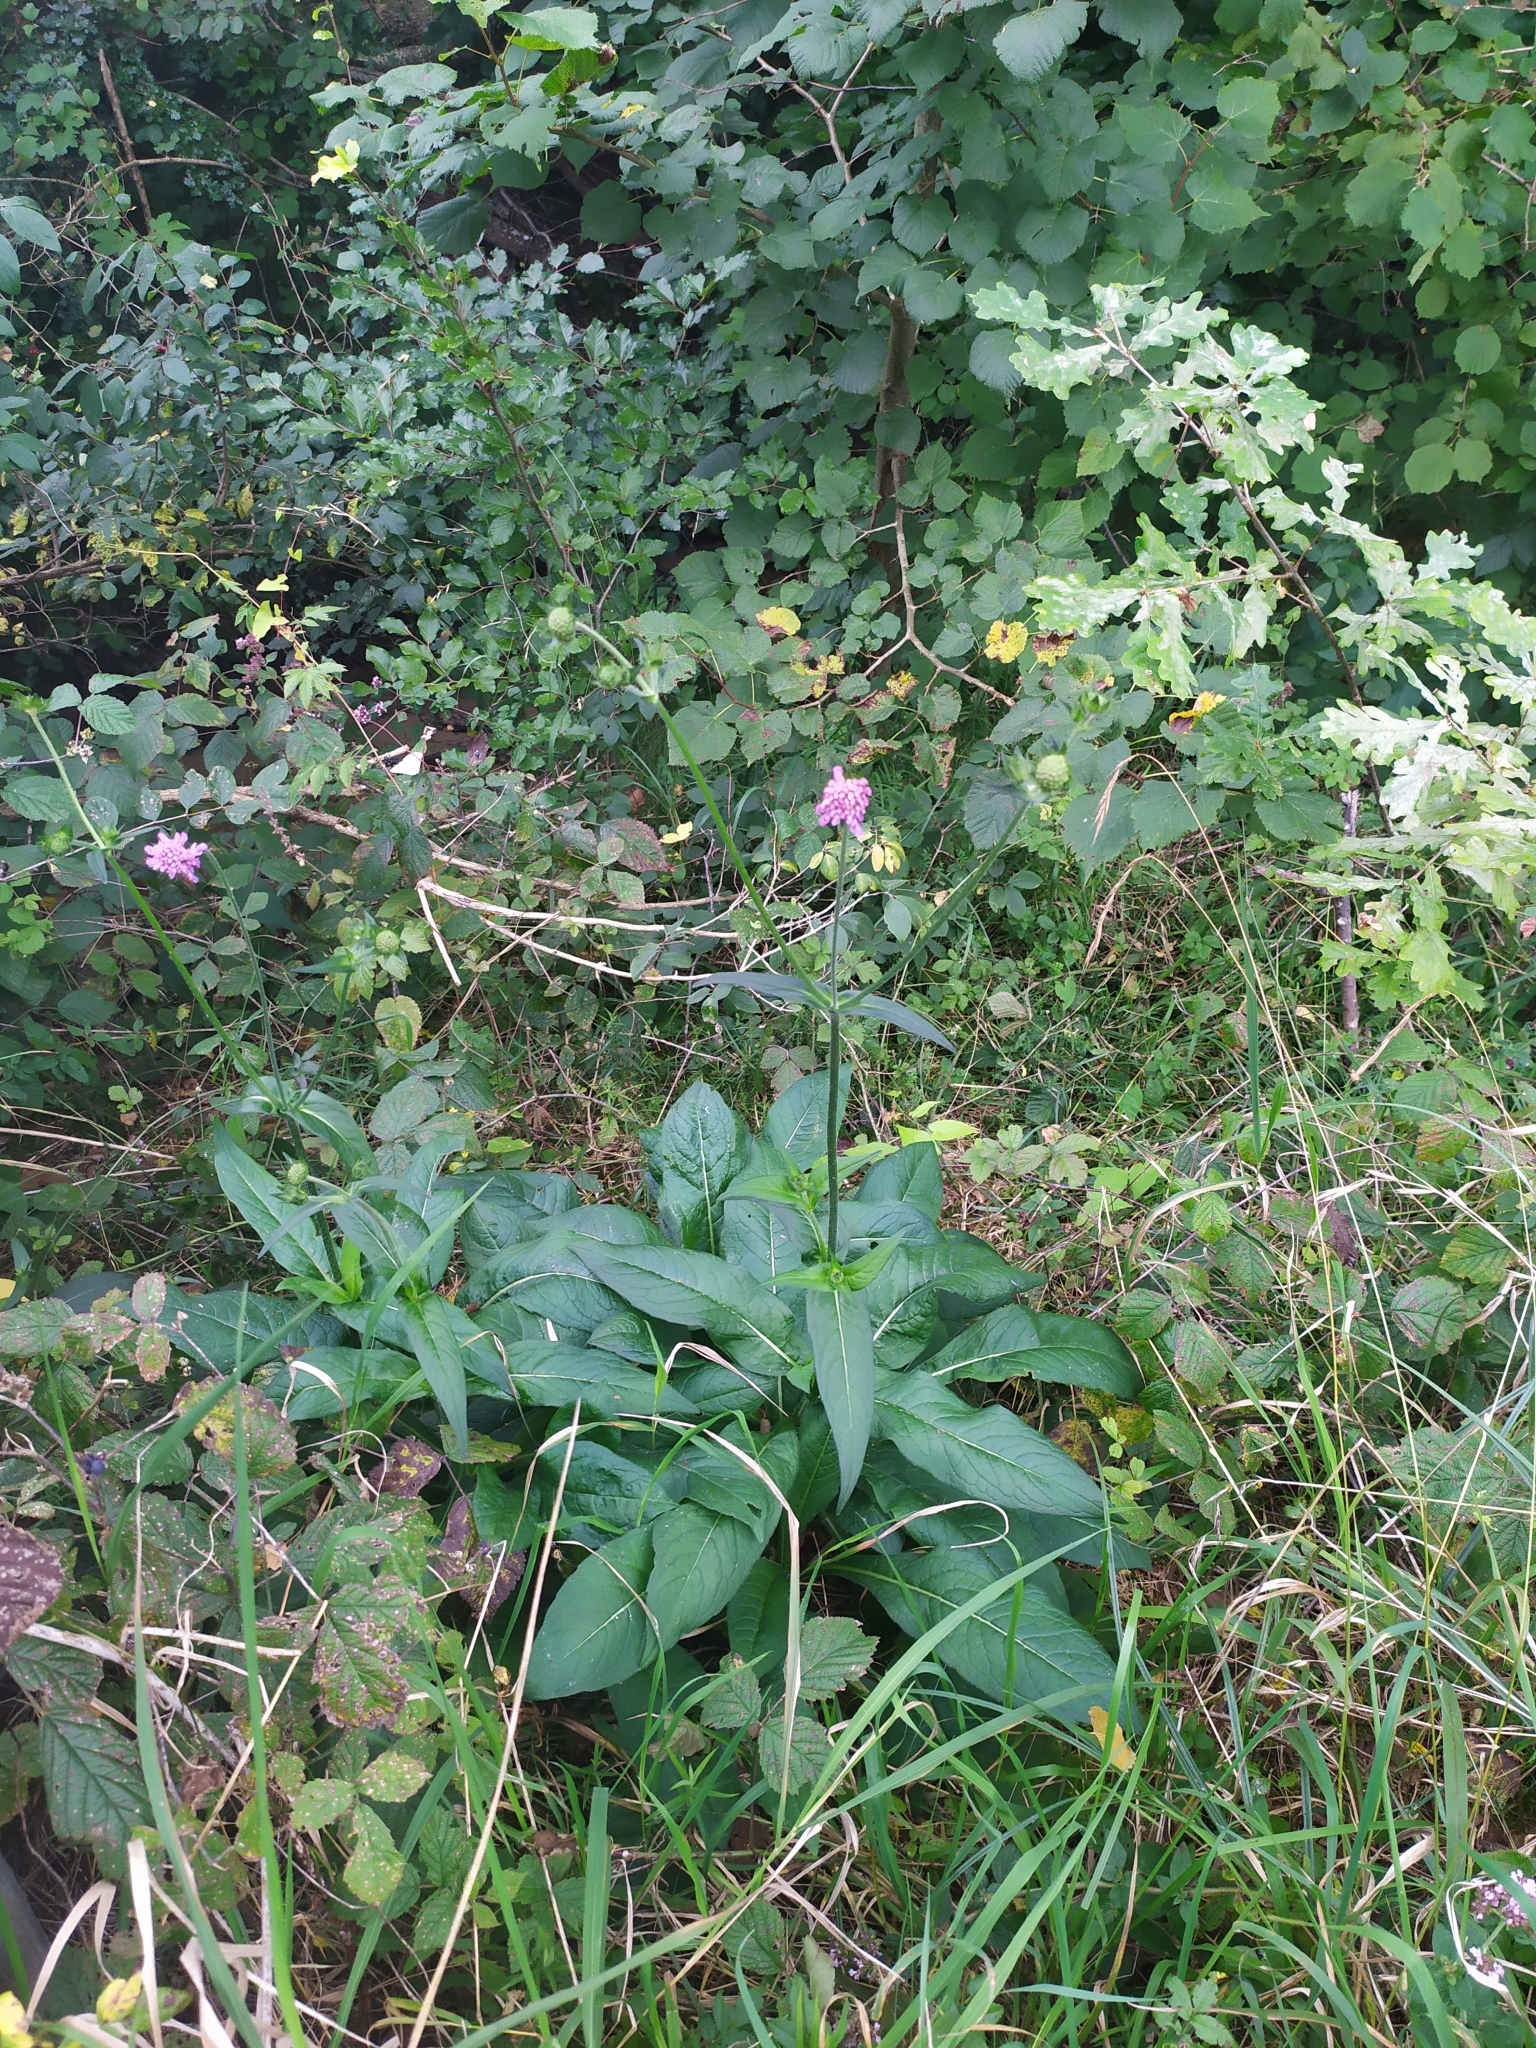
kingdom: Plantae
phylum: Tracheophyta
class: Magnoliopsida
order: Dipsacales
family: Caprifoliaceae
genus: Knautia
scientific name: Knautia dipsacifolia
